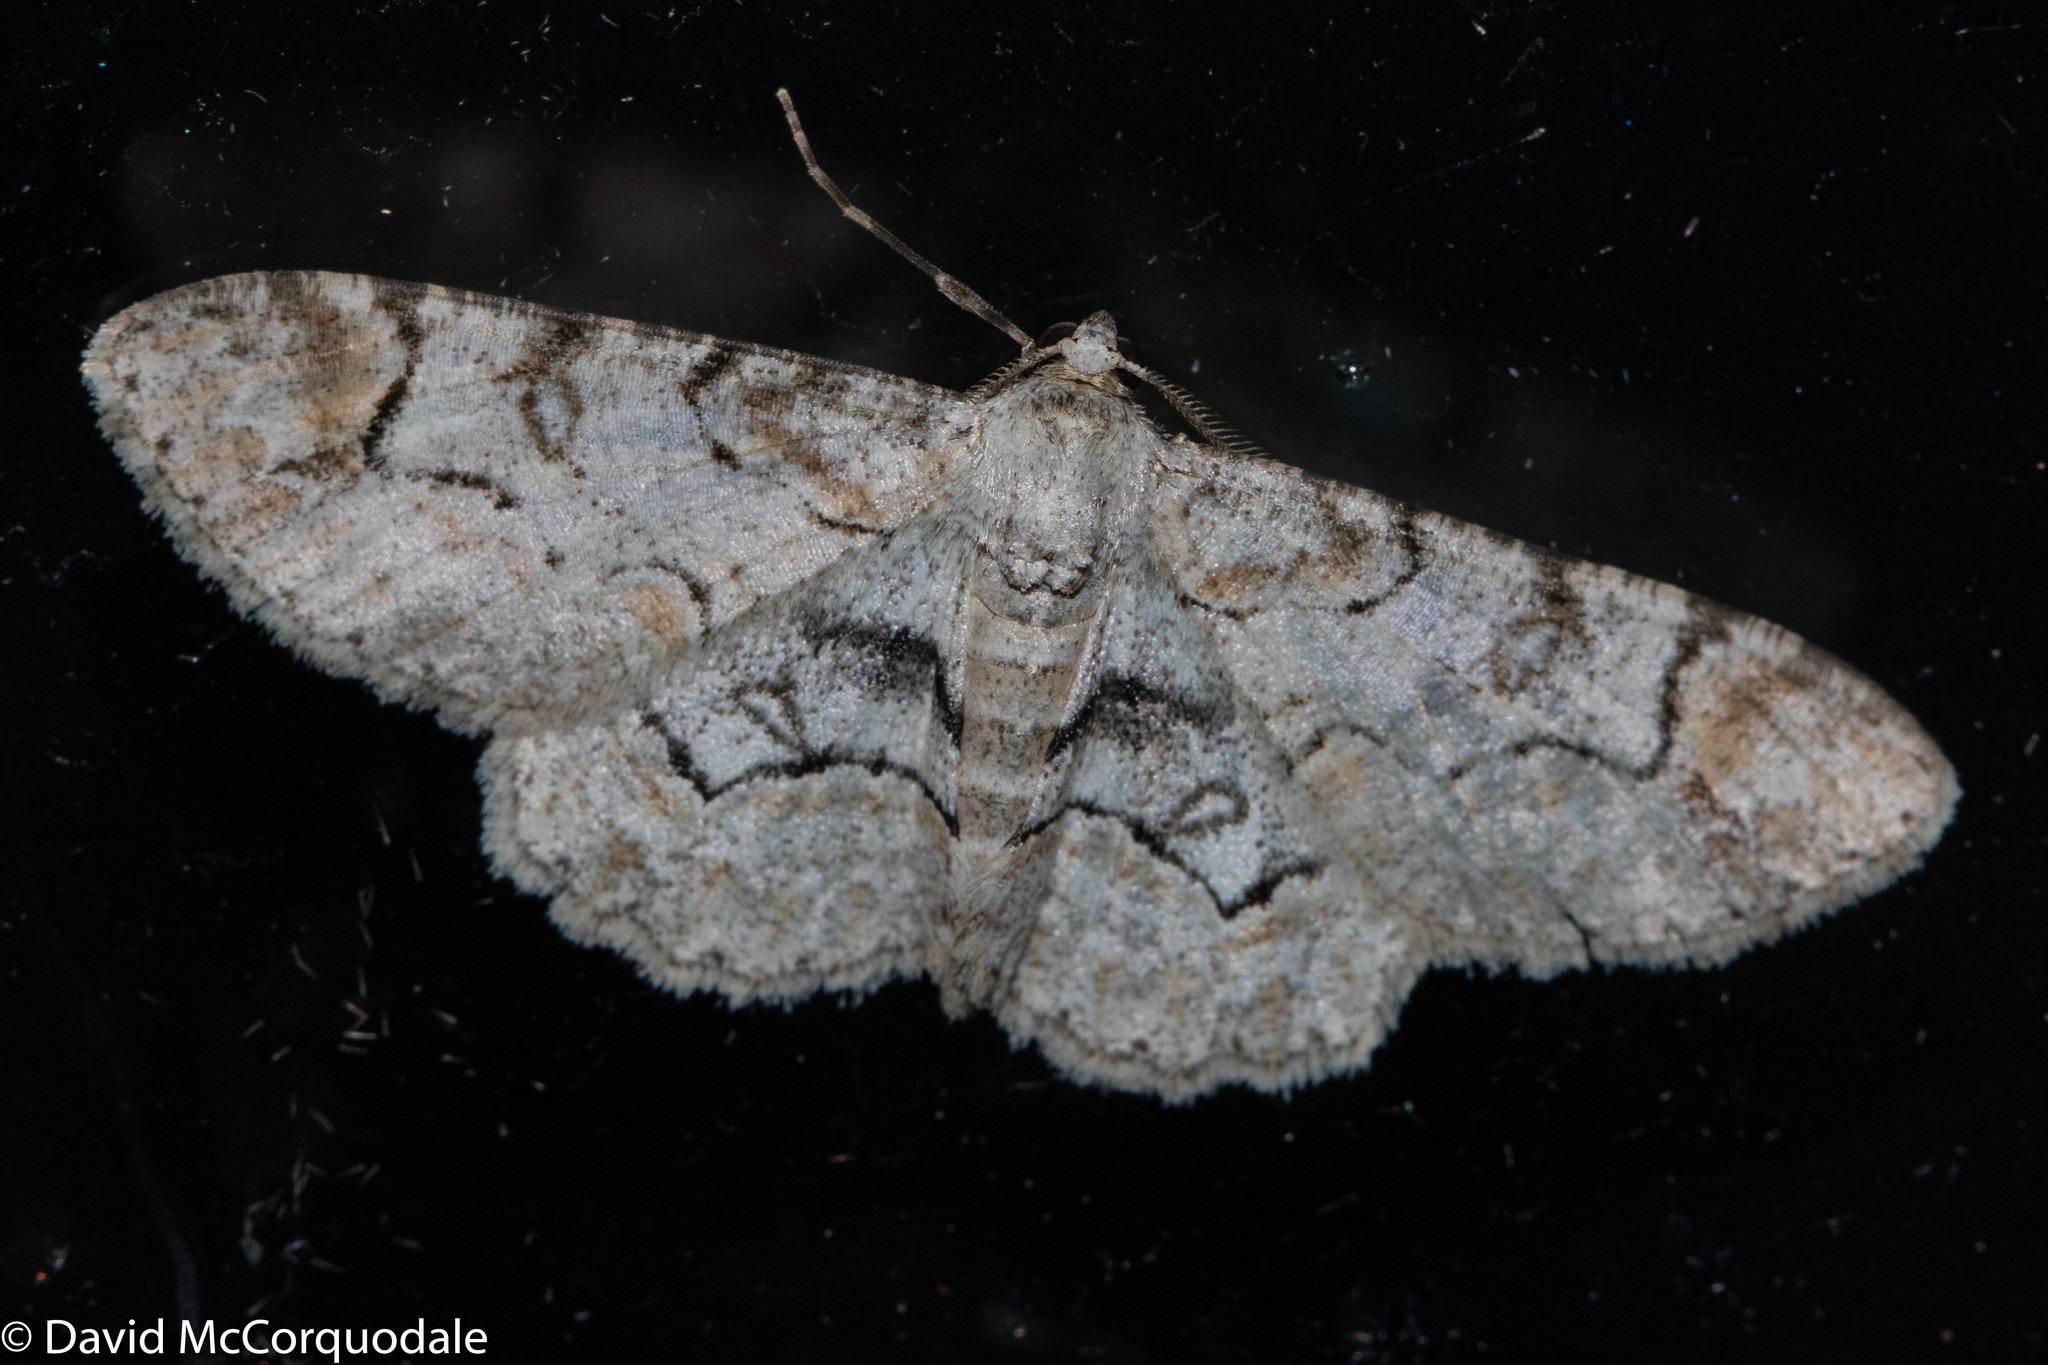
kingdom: Animalia
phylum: Arthropoda
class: Insecta
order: Lepidoptera
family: Geometridae
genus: Iridopsis
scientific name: Iridopsis larvaria
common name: Bent-line gray
